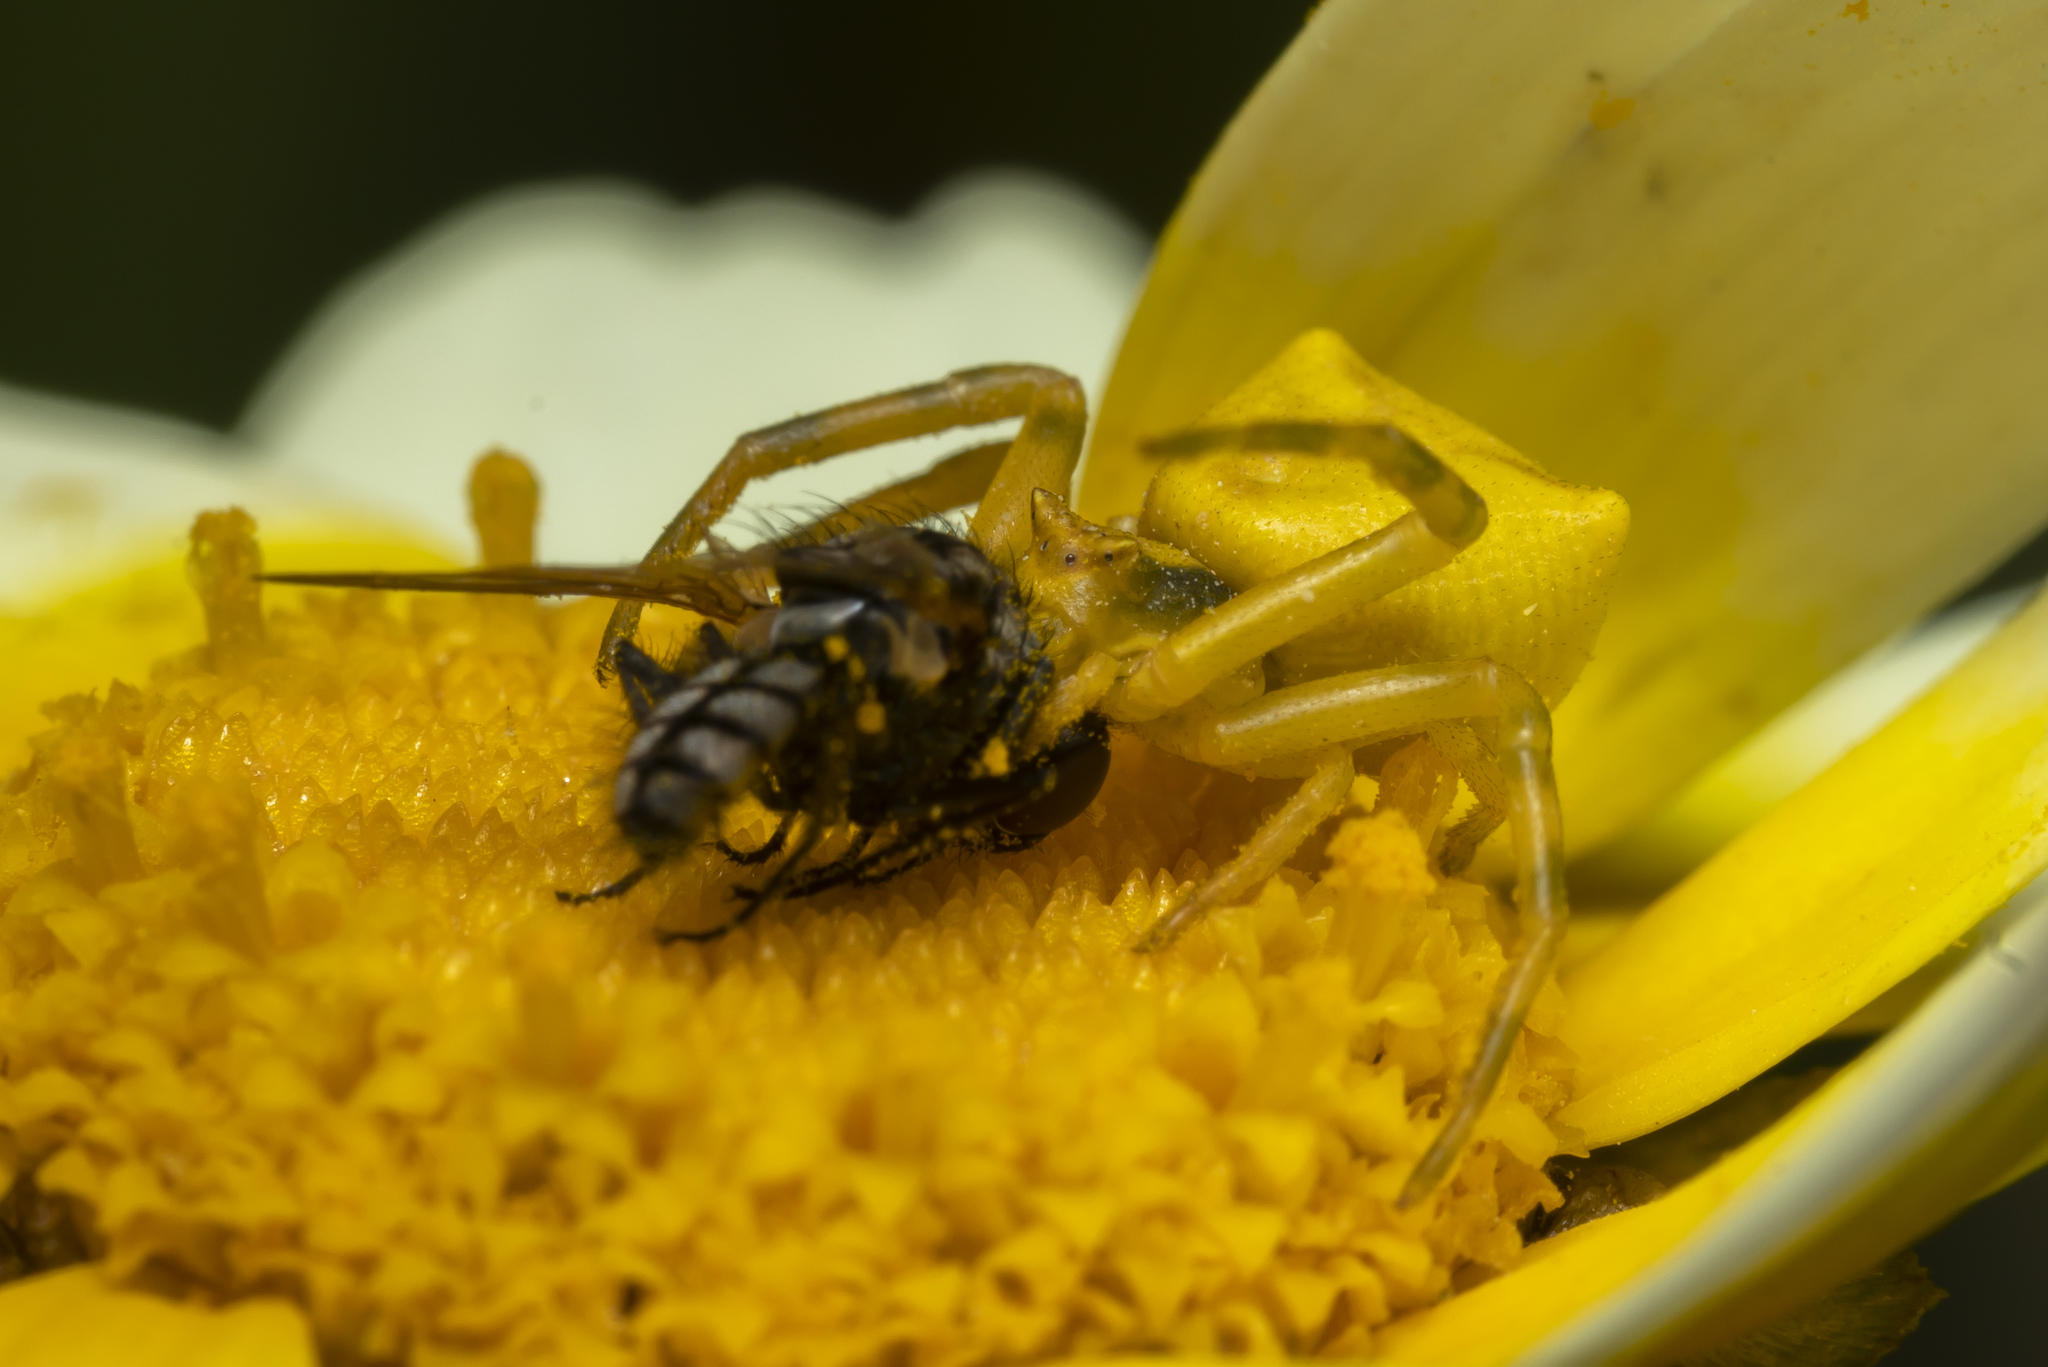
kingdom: Animalia
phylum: Arthropoda
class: Arachnida
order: Araneae
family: Thomisidae
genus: Thomisus
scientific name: Thomisus onustus
